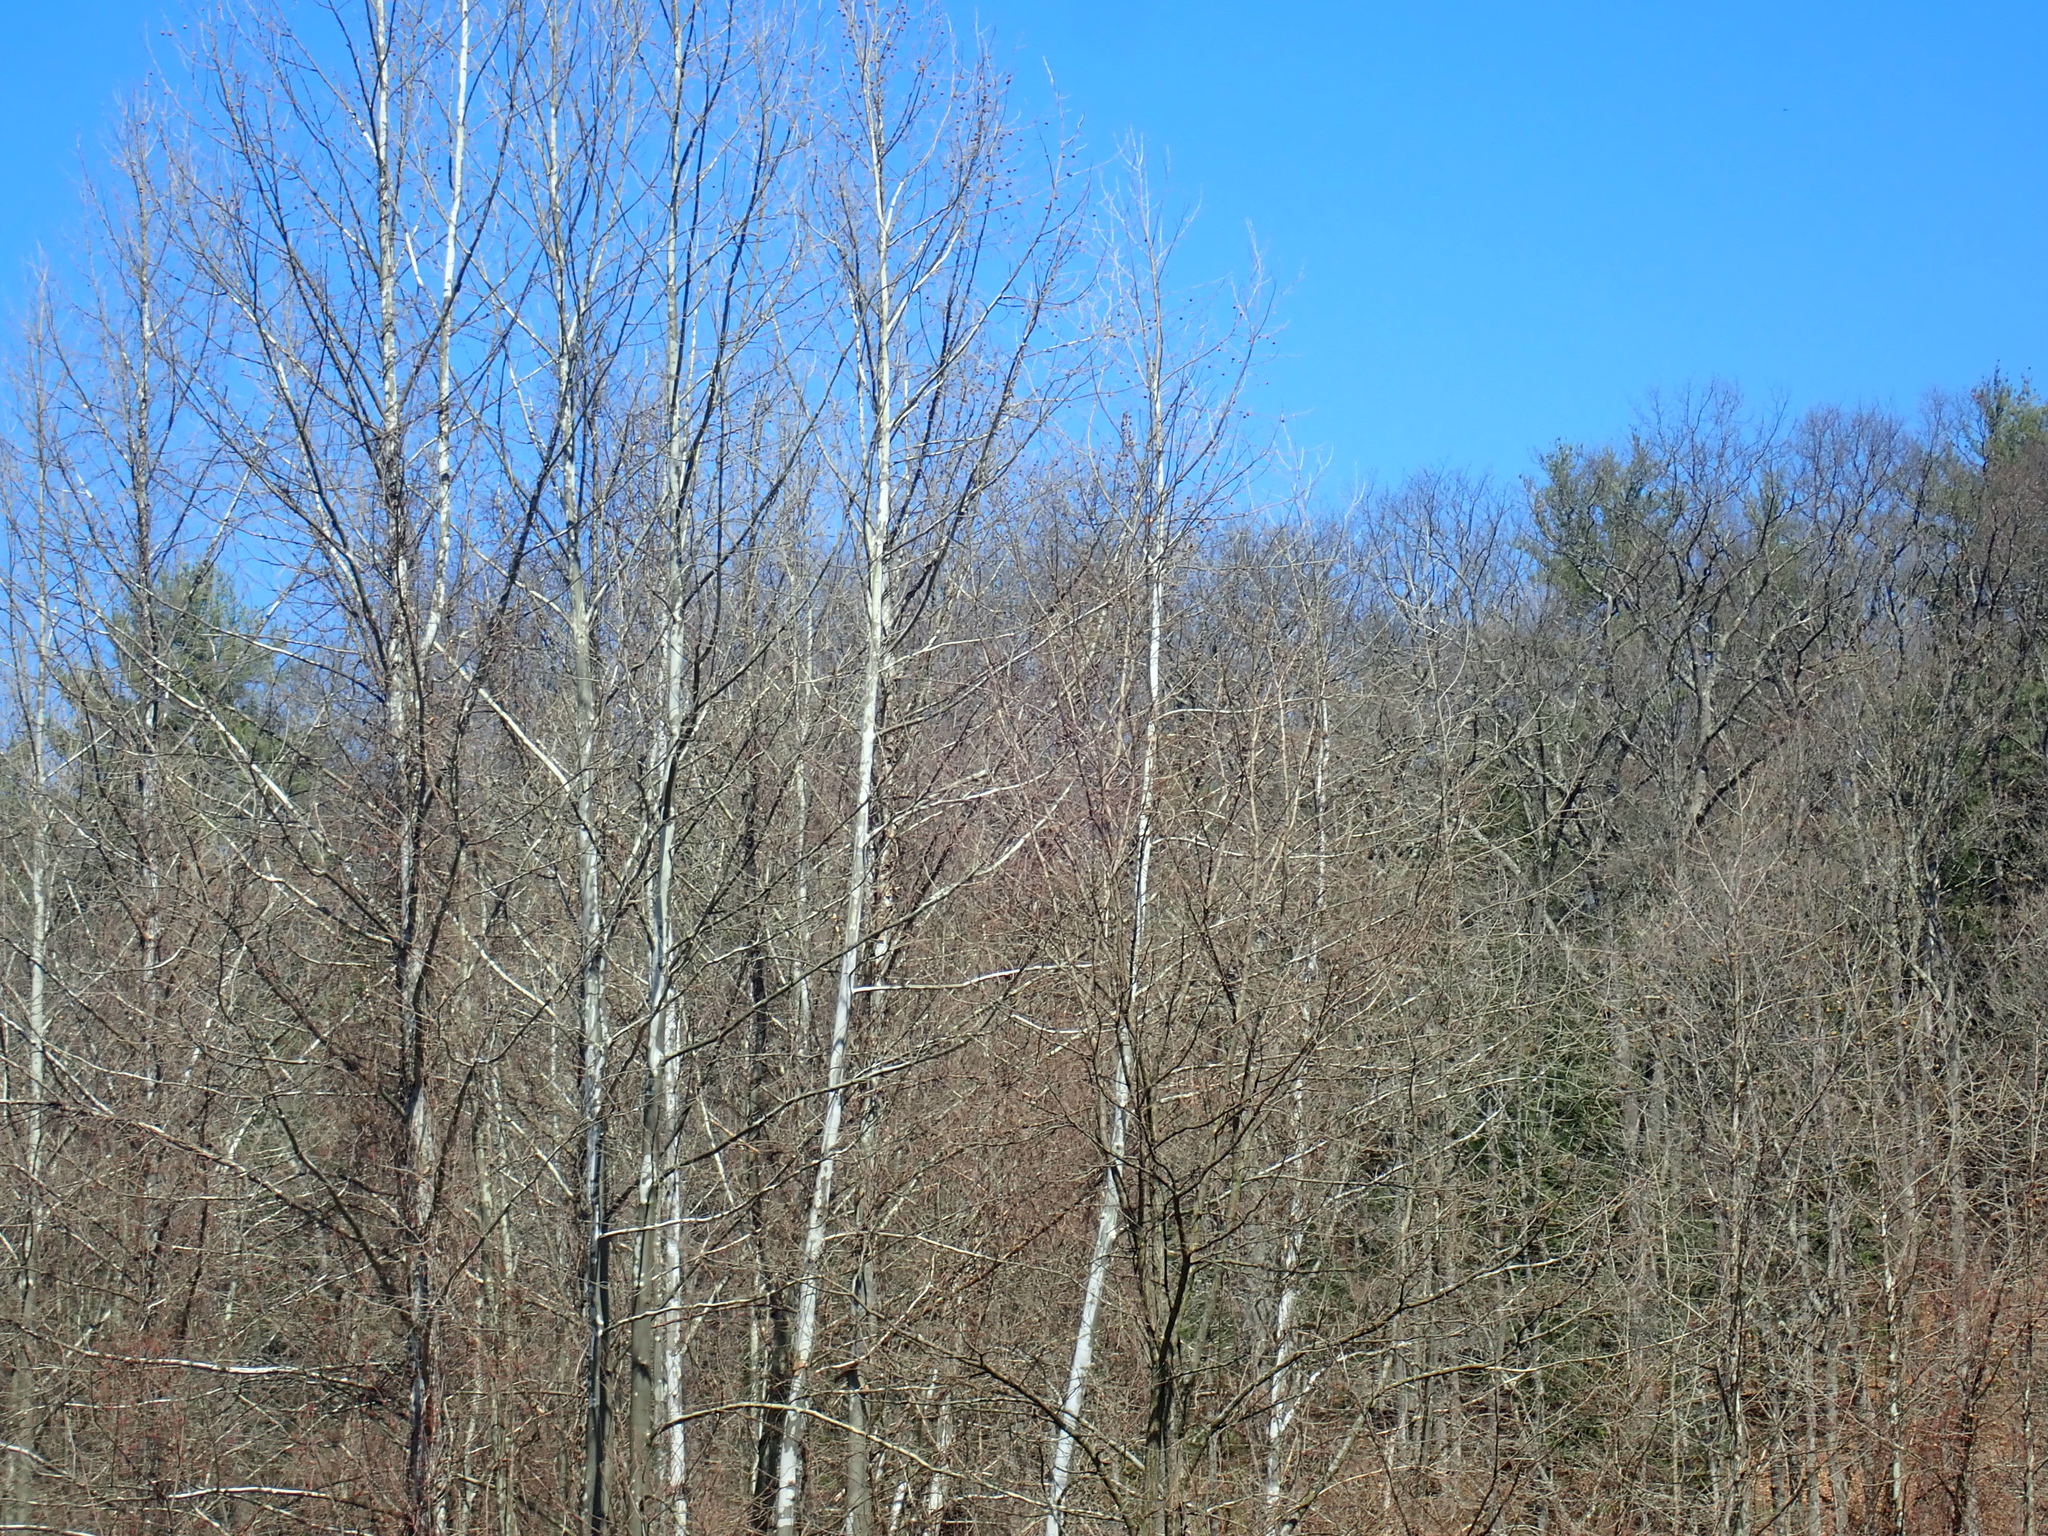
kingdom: Plantae
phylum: Tracheophyta
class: Magnoliopsida
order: Proteales
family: Platanaceae
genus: Platanus
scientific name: Platanus occidentalis
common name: American sycamore
